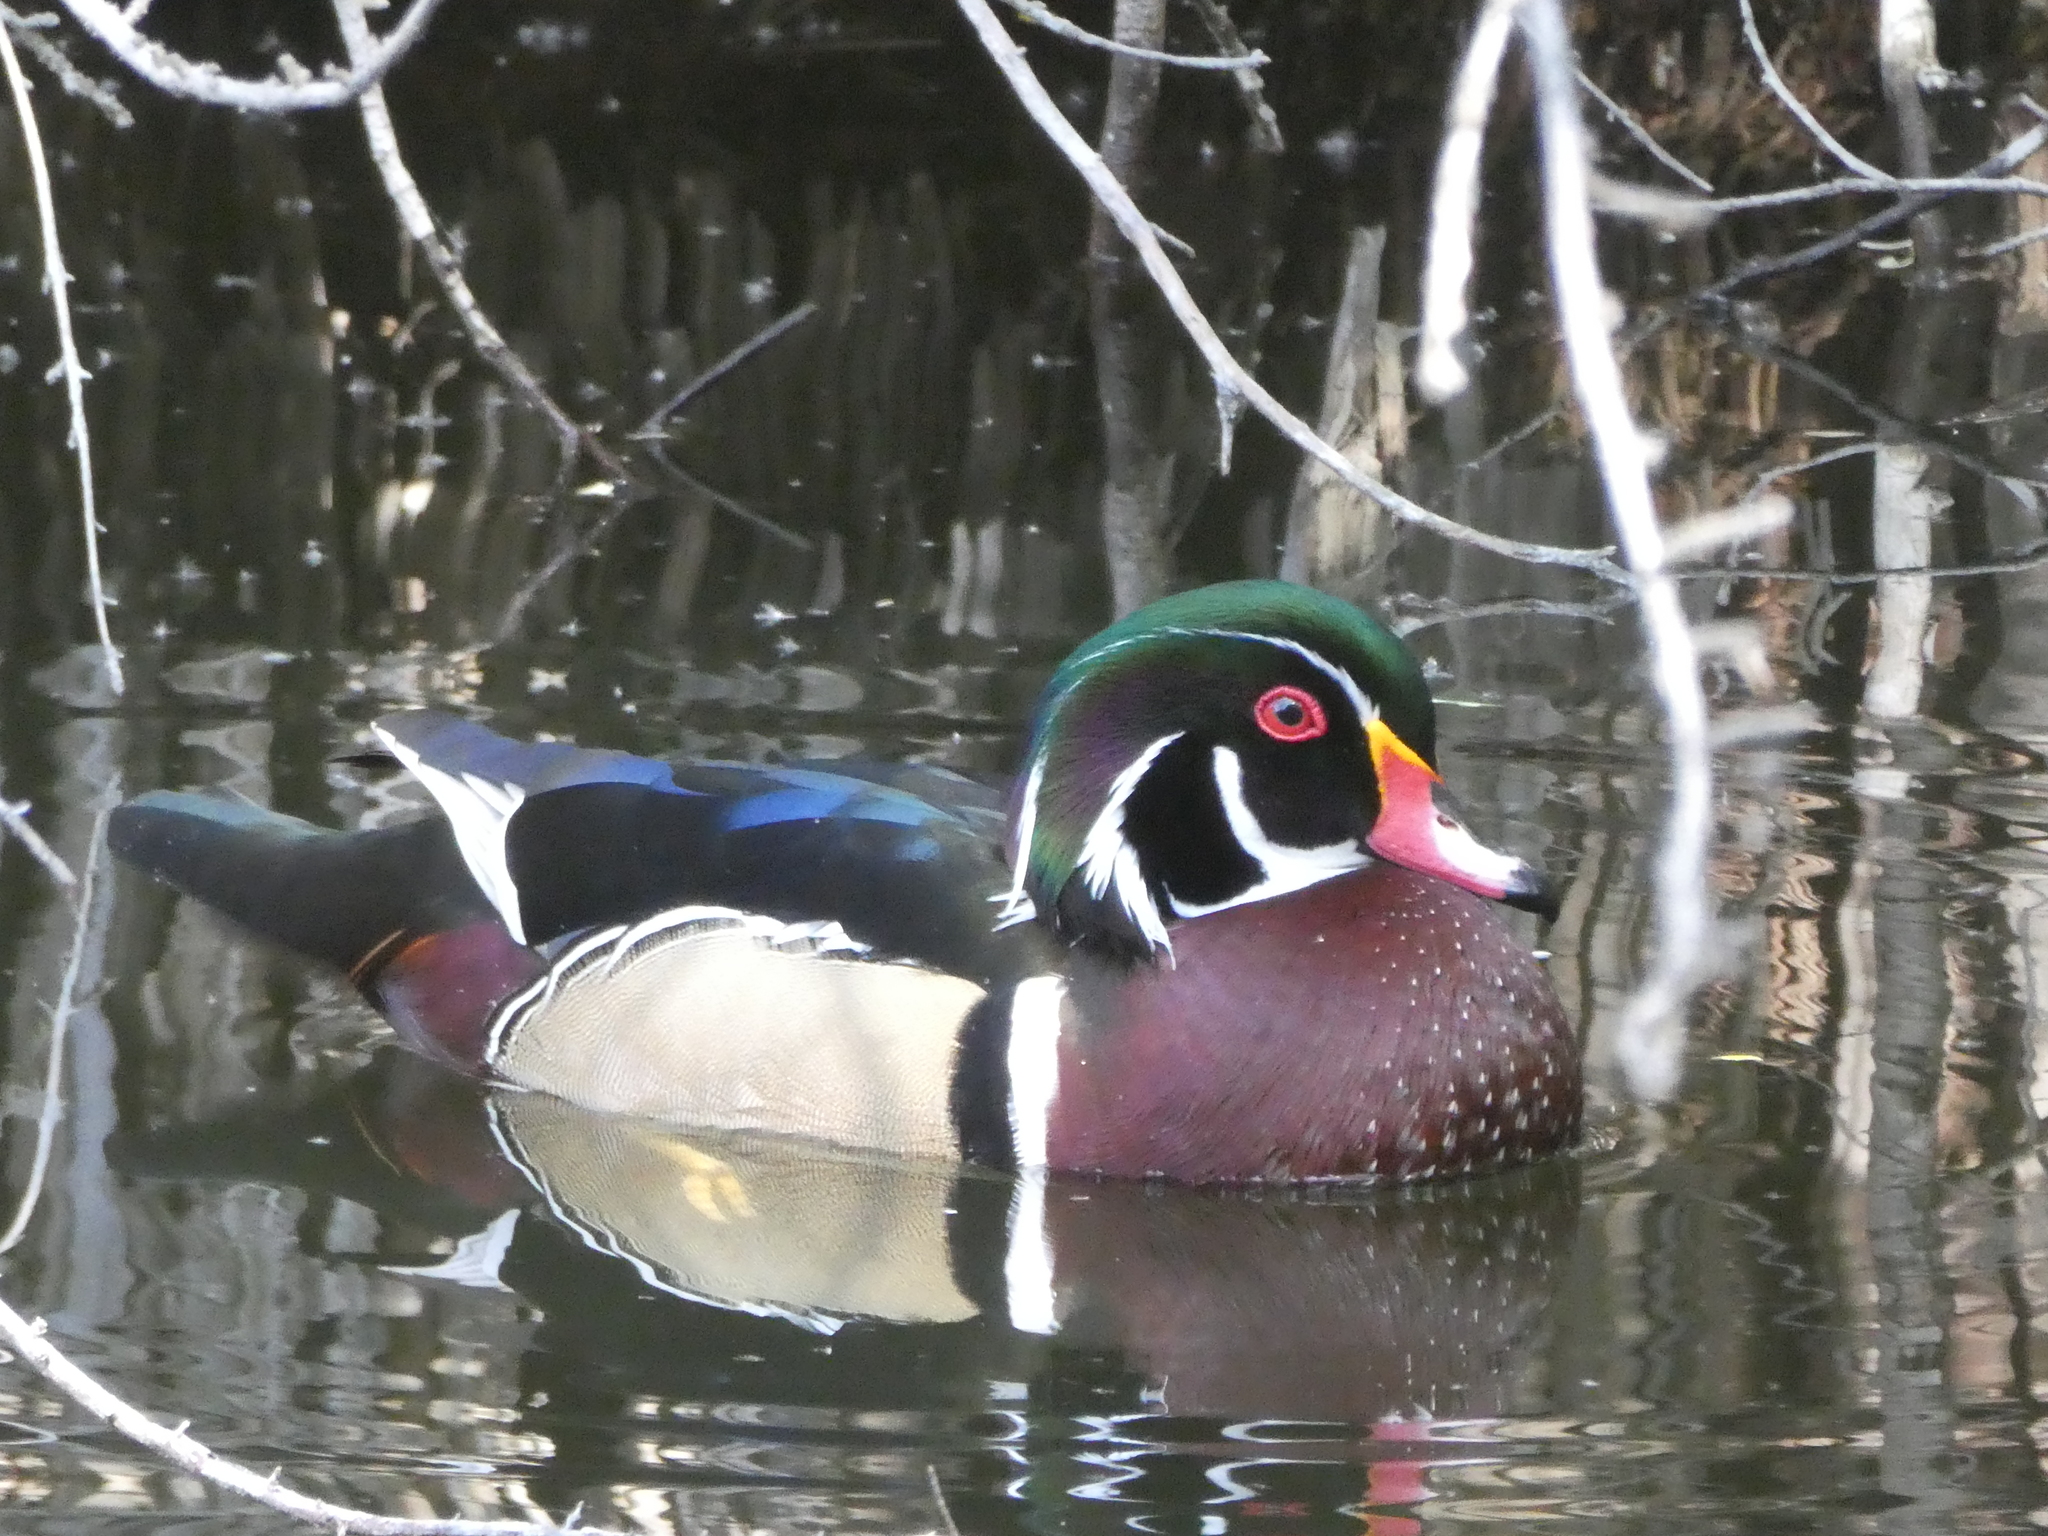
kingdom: Animalia
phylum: Chordata
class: Aves
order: Anseriformes
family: Anatidae
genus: Aix
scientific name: Aix sponsa
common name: Wood duck
